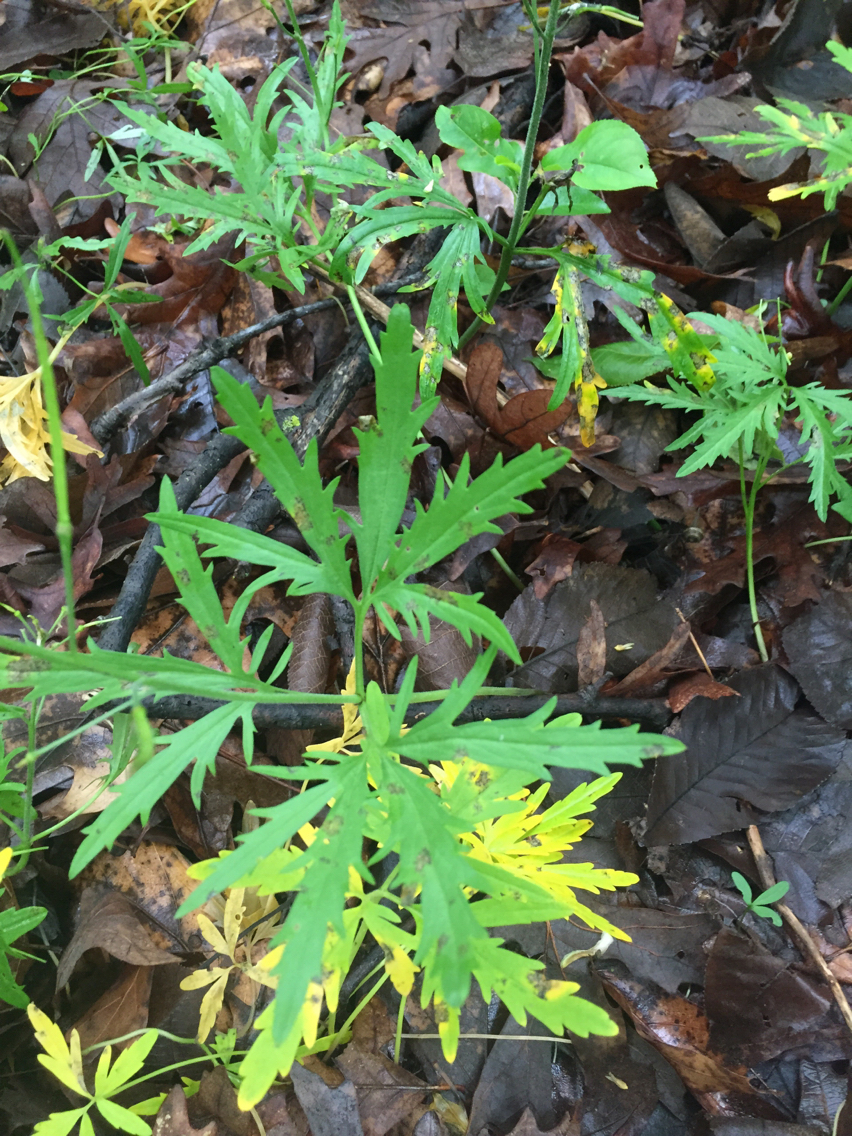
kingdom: Plantae
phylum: Tracheophyta
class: Magnoliopsida
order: Brassicales
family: Brassicaceae
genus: Cardamine
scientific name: Cardamine concatenata
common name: Cut-leaf toothcup
